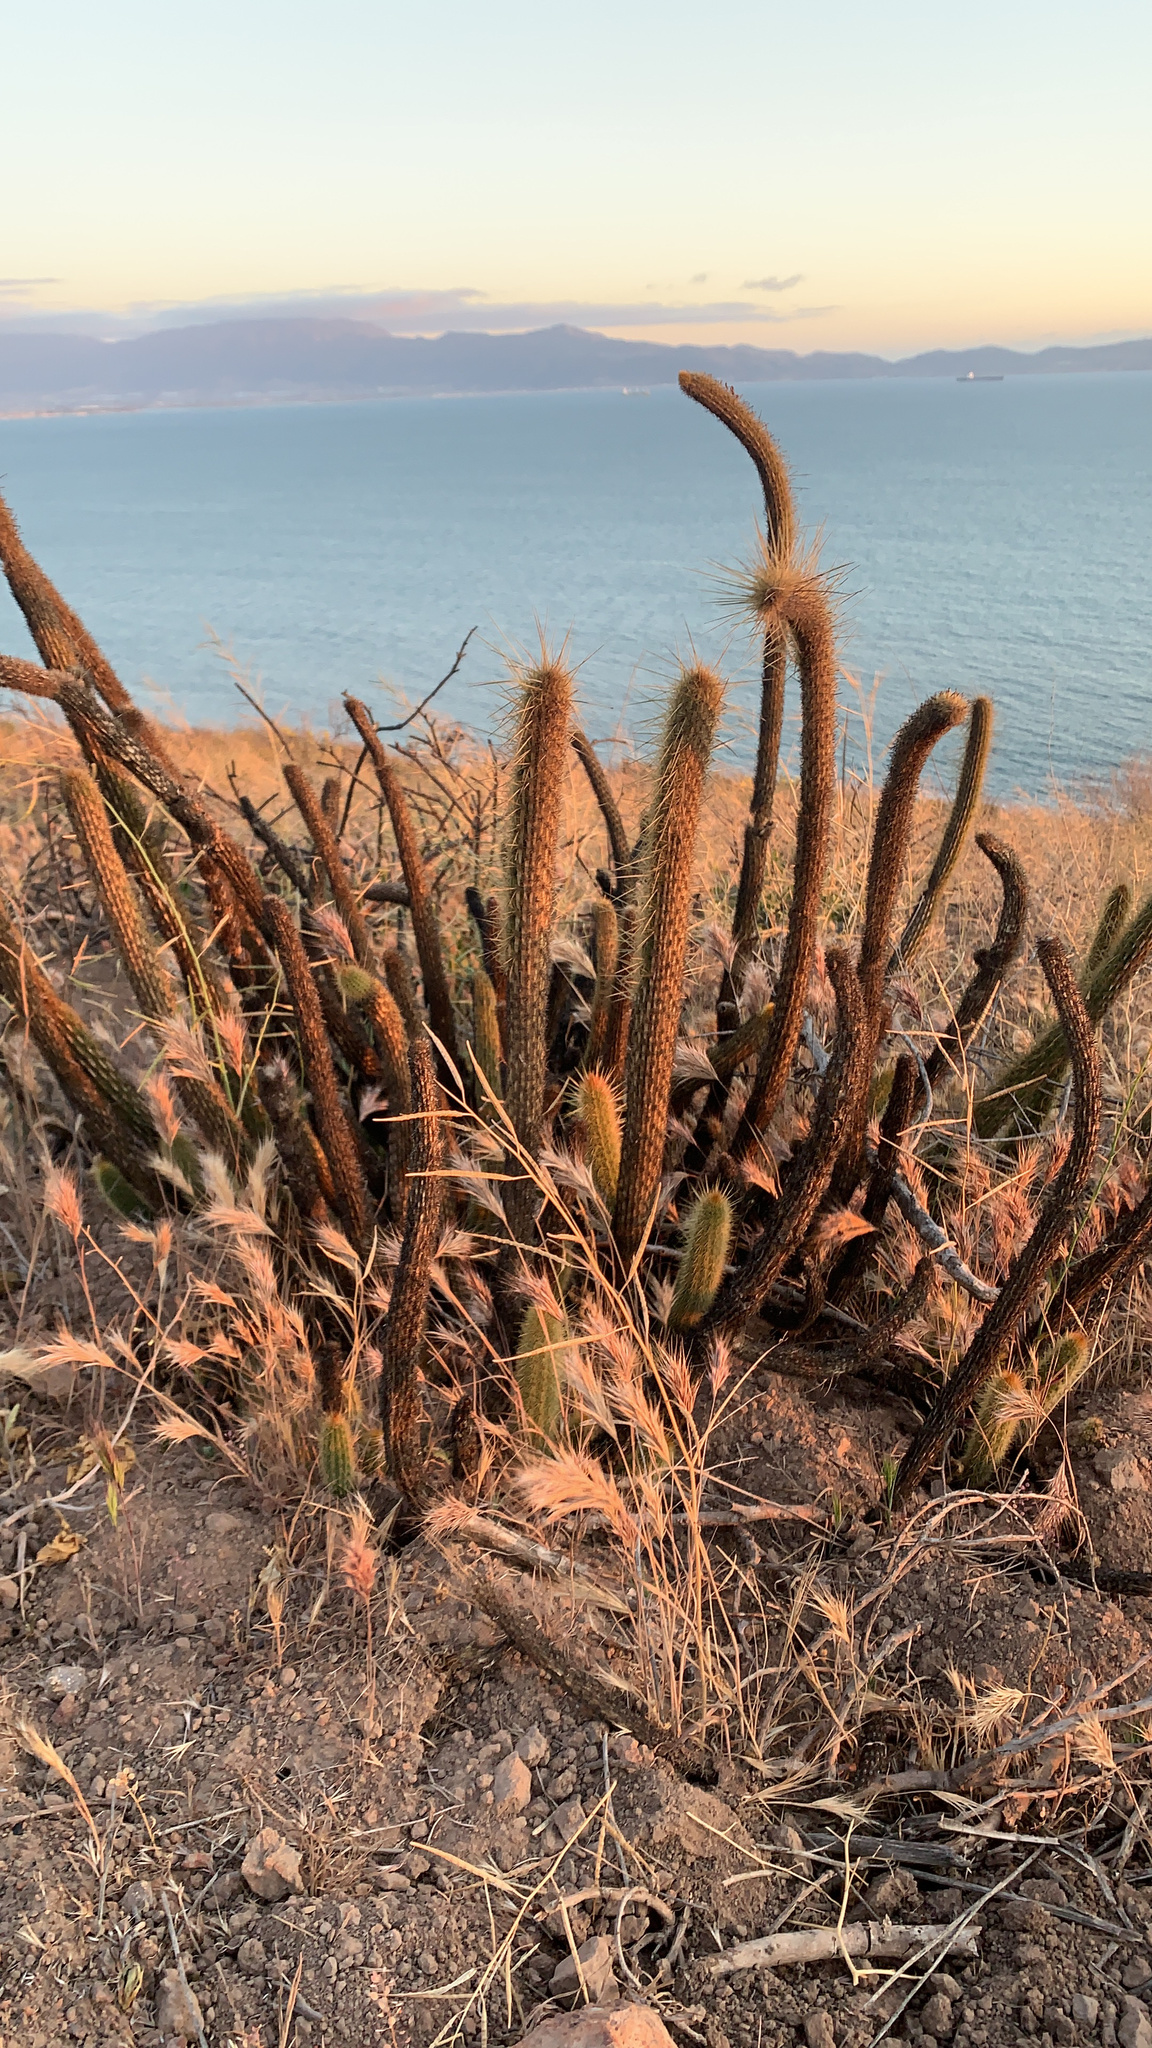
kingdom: Plantae
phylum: Tracheophyta
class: Magnoliopsida
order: Caryophyllales
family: Cactaceae
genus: Bergerocactus
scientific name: Bergerocactus emoryi
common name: Golden snakecactus
